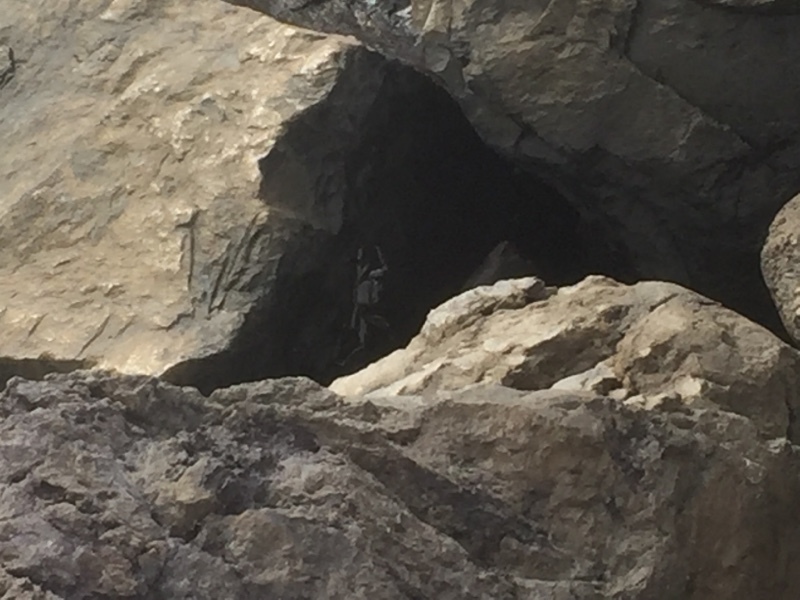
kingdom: Animalia
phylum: Arthropoda
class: Malacostraca
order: Decapoda
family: Grapsidae
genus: Grapsus
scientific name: Grapsus adscensionis
